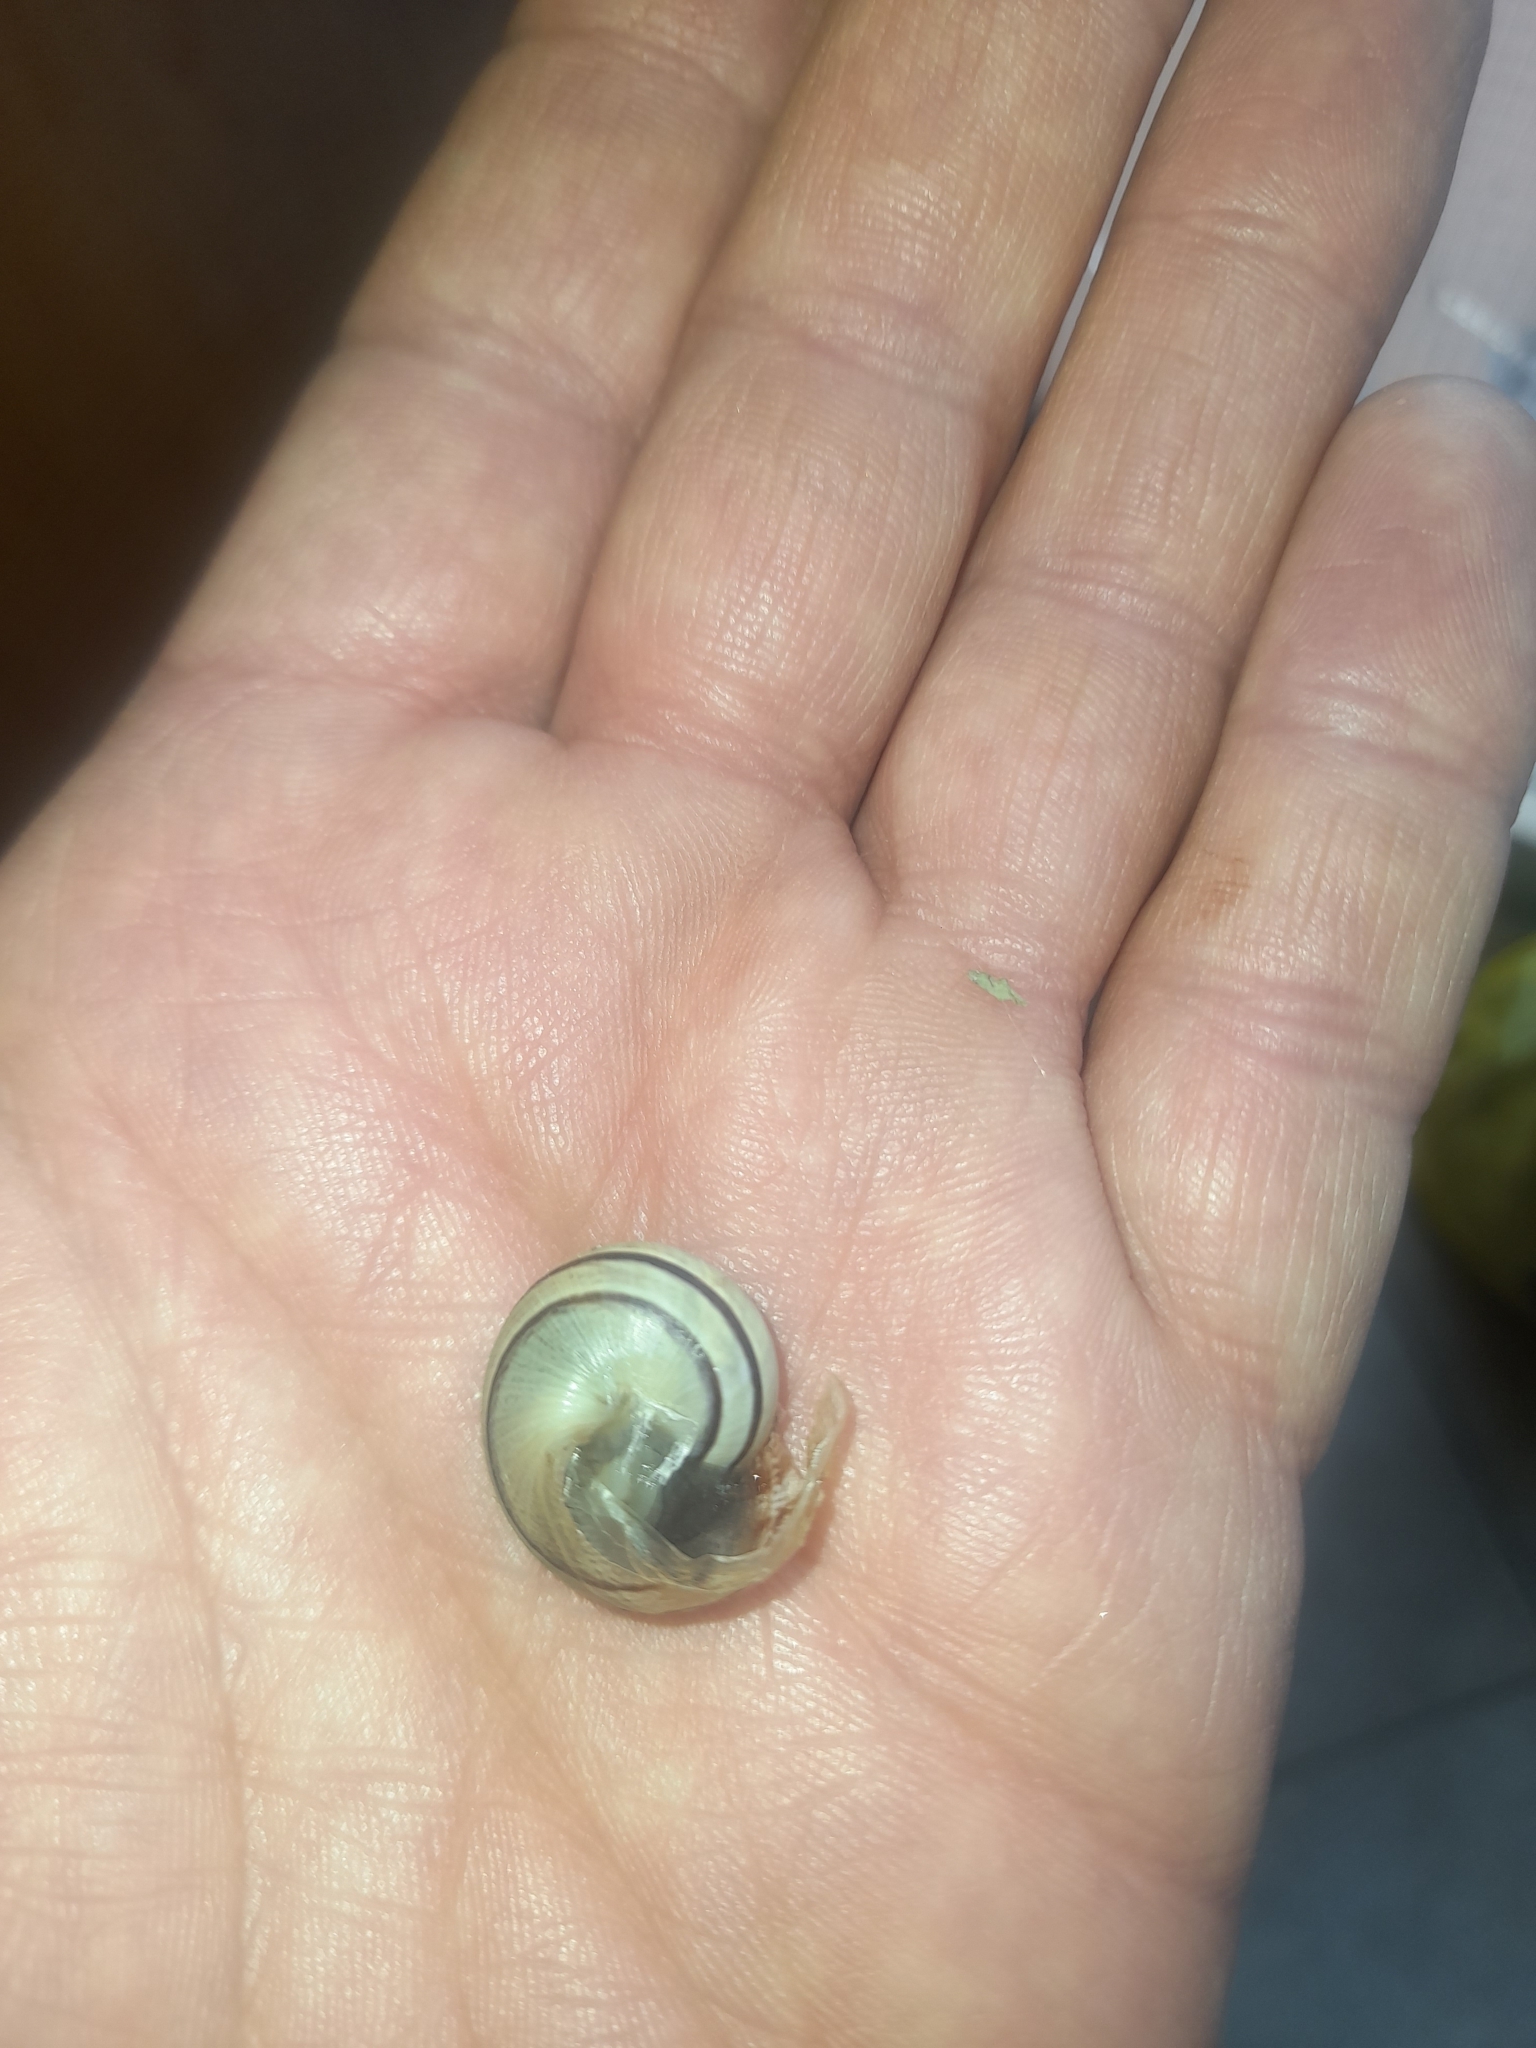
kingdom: Animalia
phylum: Mollusca
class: Gastropoda
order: Stylommatophora
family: Helicidae
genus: Eobania
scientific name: Eobania vermiculata
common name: Chocolateband snail
